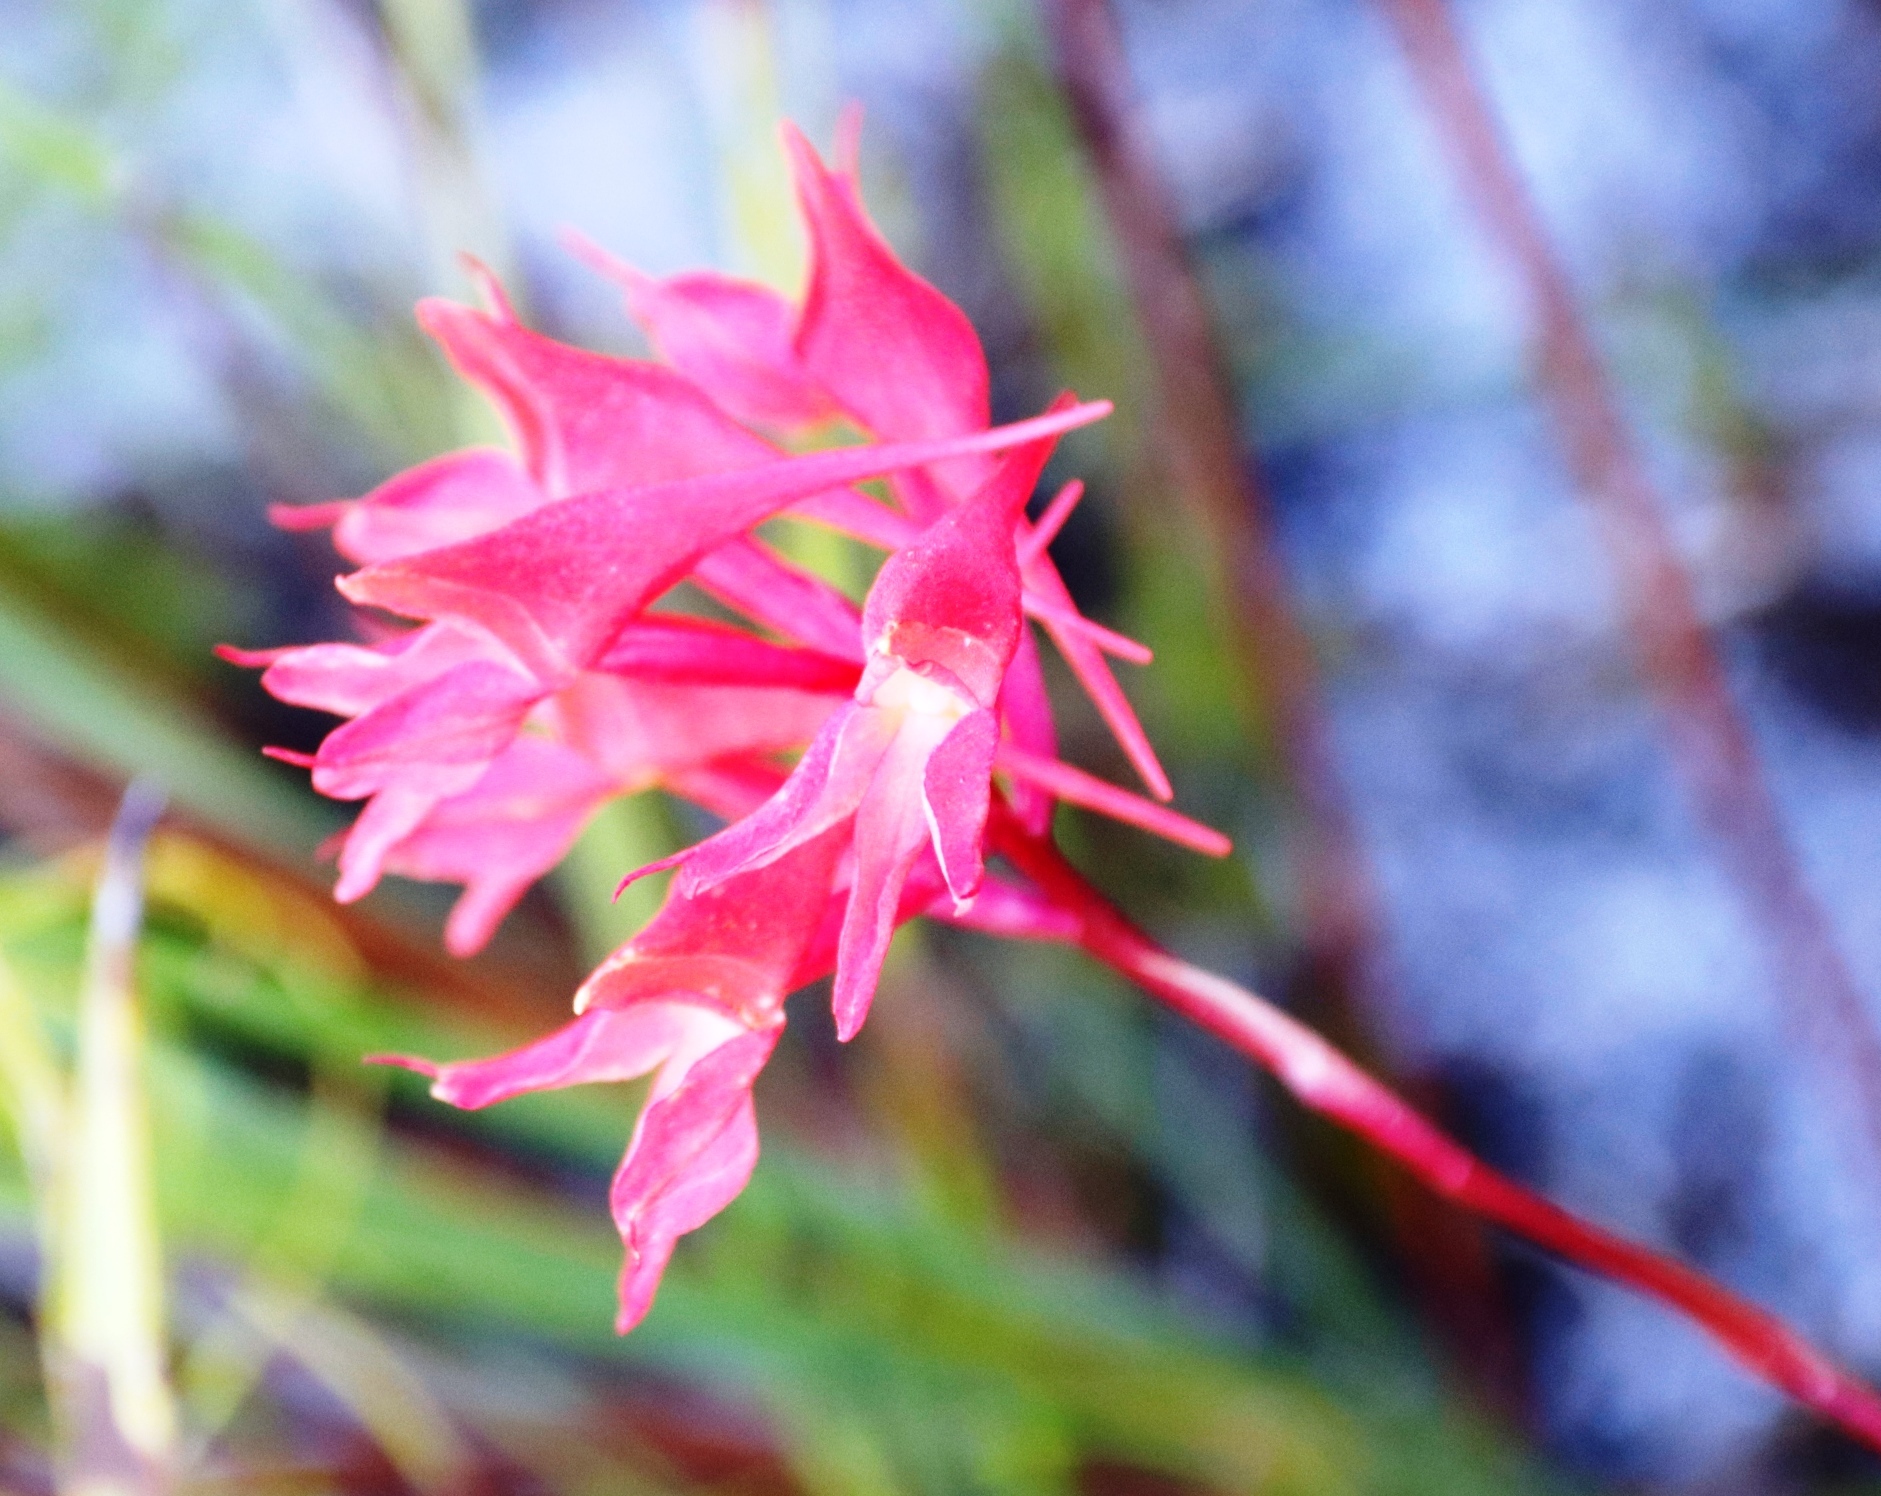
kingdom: Plantae
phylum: Tracheophyta
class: Liliopsida
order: Asparagales
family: Orchidaceae
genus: Disa
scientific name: Disa ferruginea
